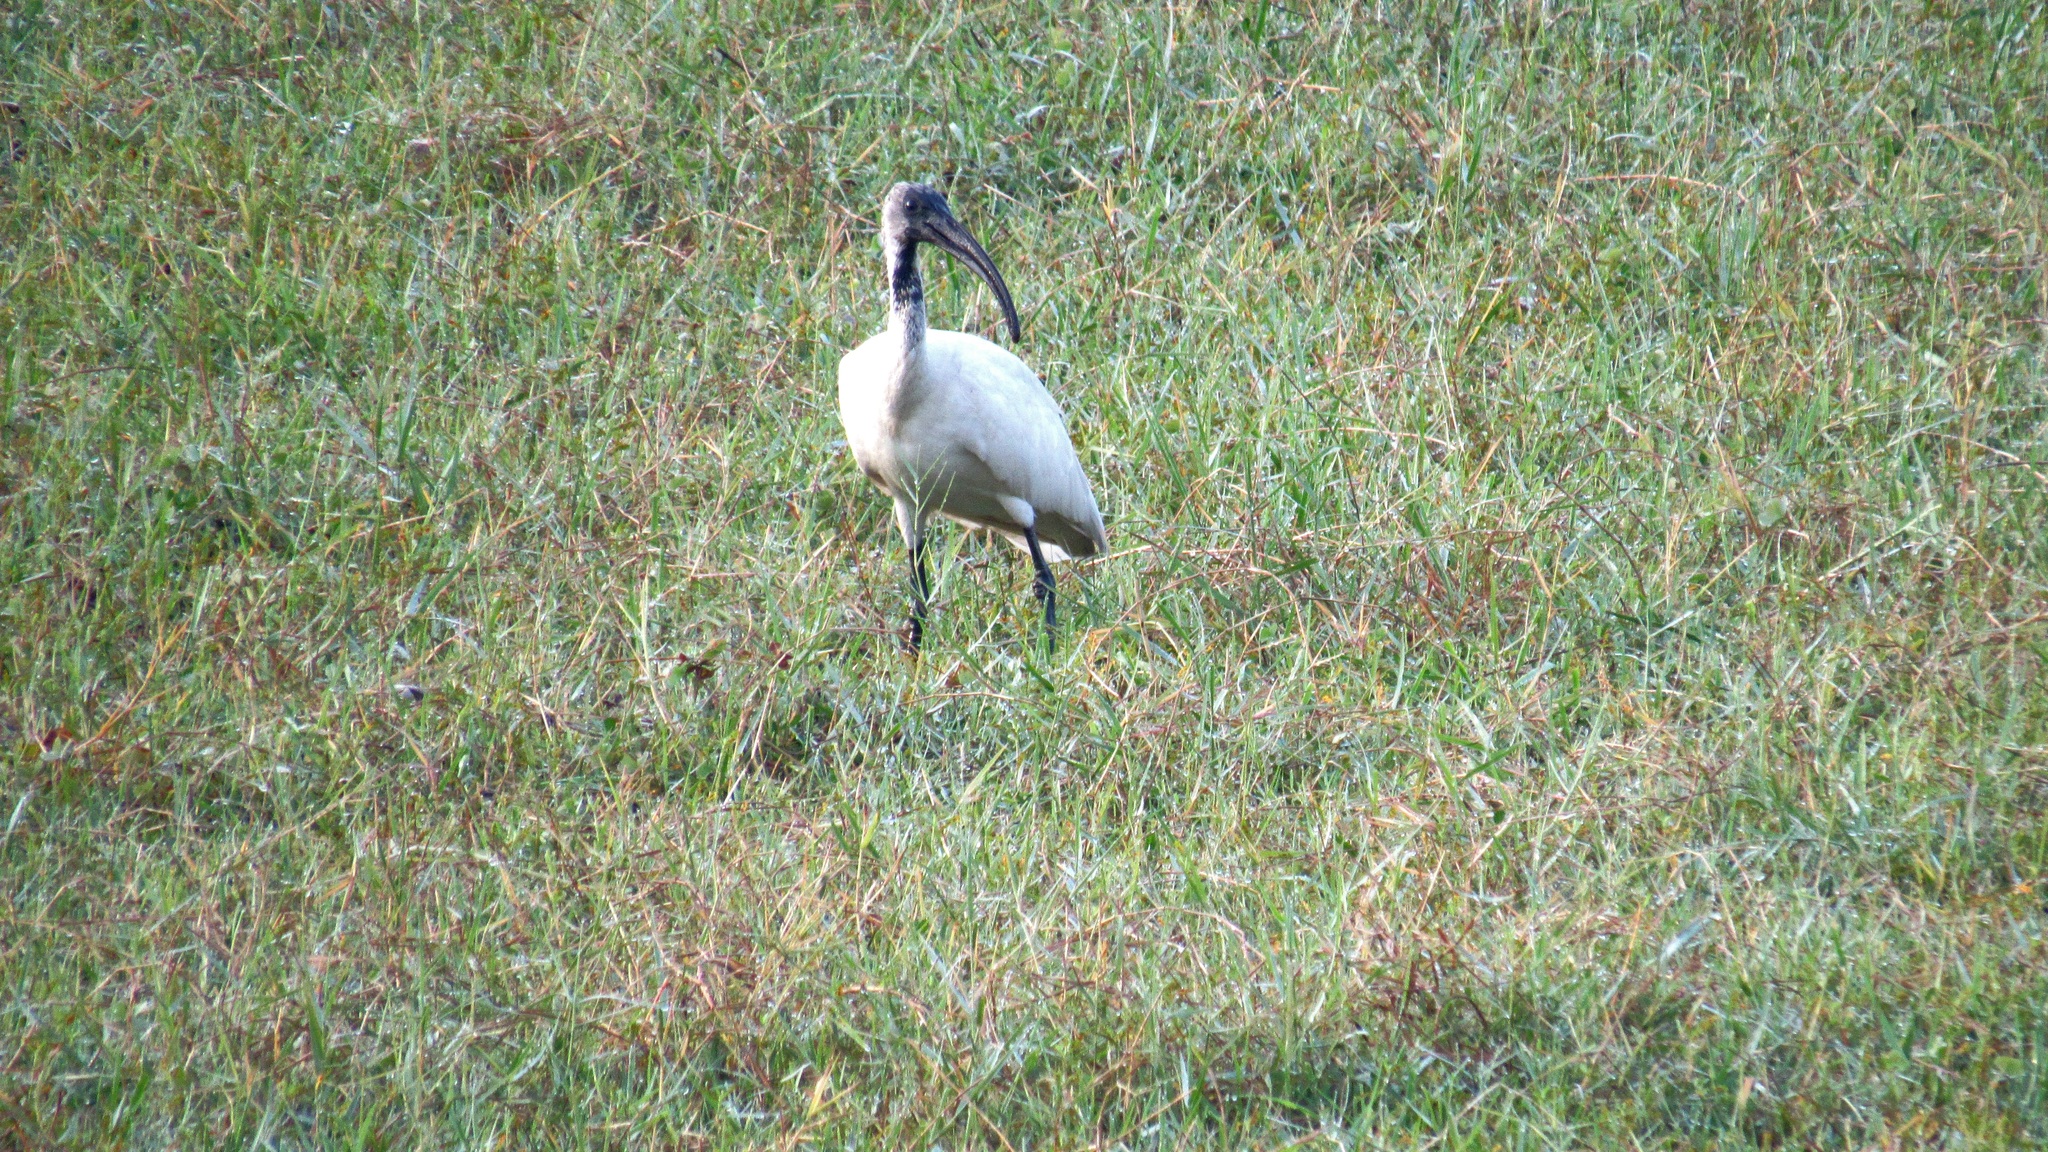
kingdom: Animalia
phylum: Chordata
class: Aves
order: Pelecaniformes
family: Threskiornithidae
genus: Threskiornis
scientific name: Threskiornis melanocephalus
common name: Black-headed ibis
